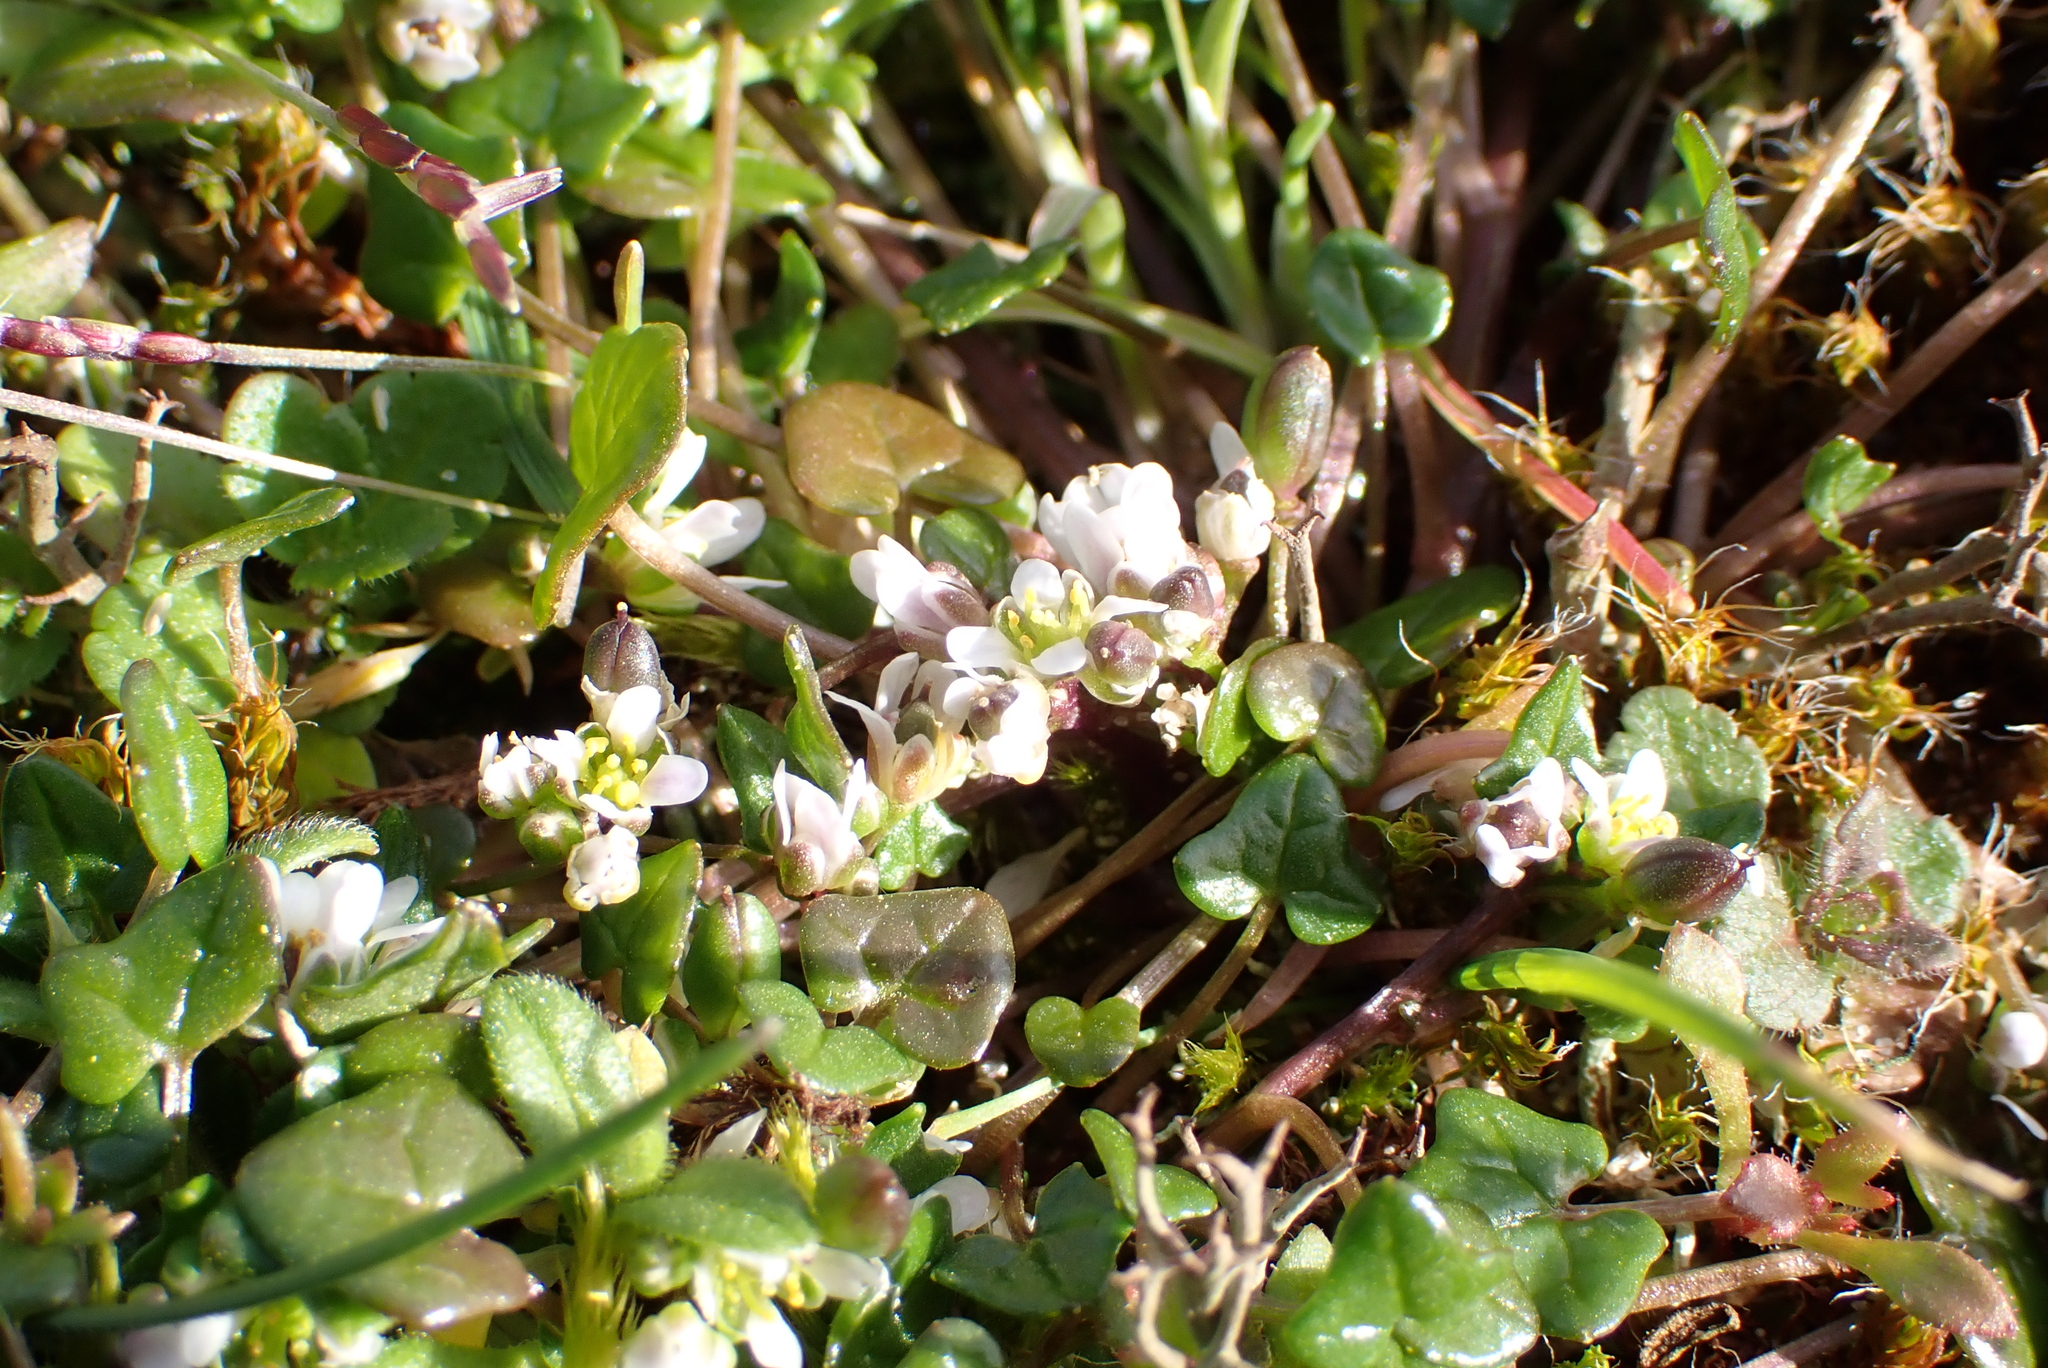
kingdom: Plantae
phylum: Tracheophyta
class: Magnoliopsida
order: Brassicales
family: Brassicaceae
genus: Cochlearia
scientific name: Cochlearia danica
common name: Early scurvygrass
